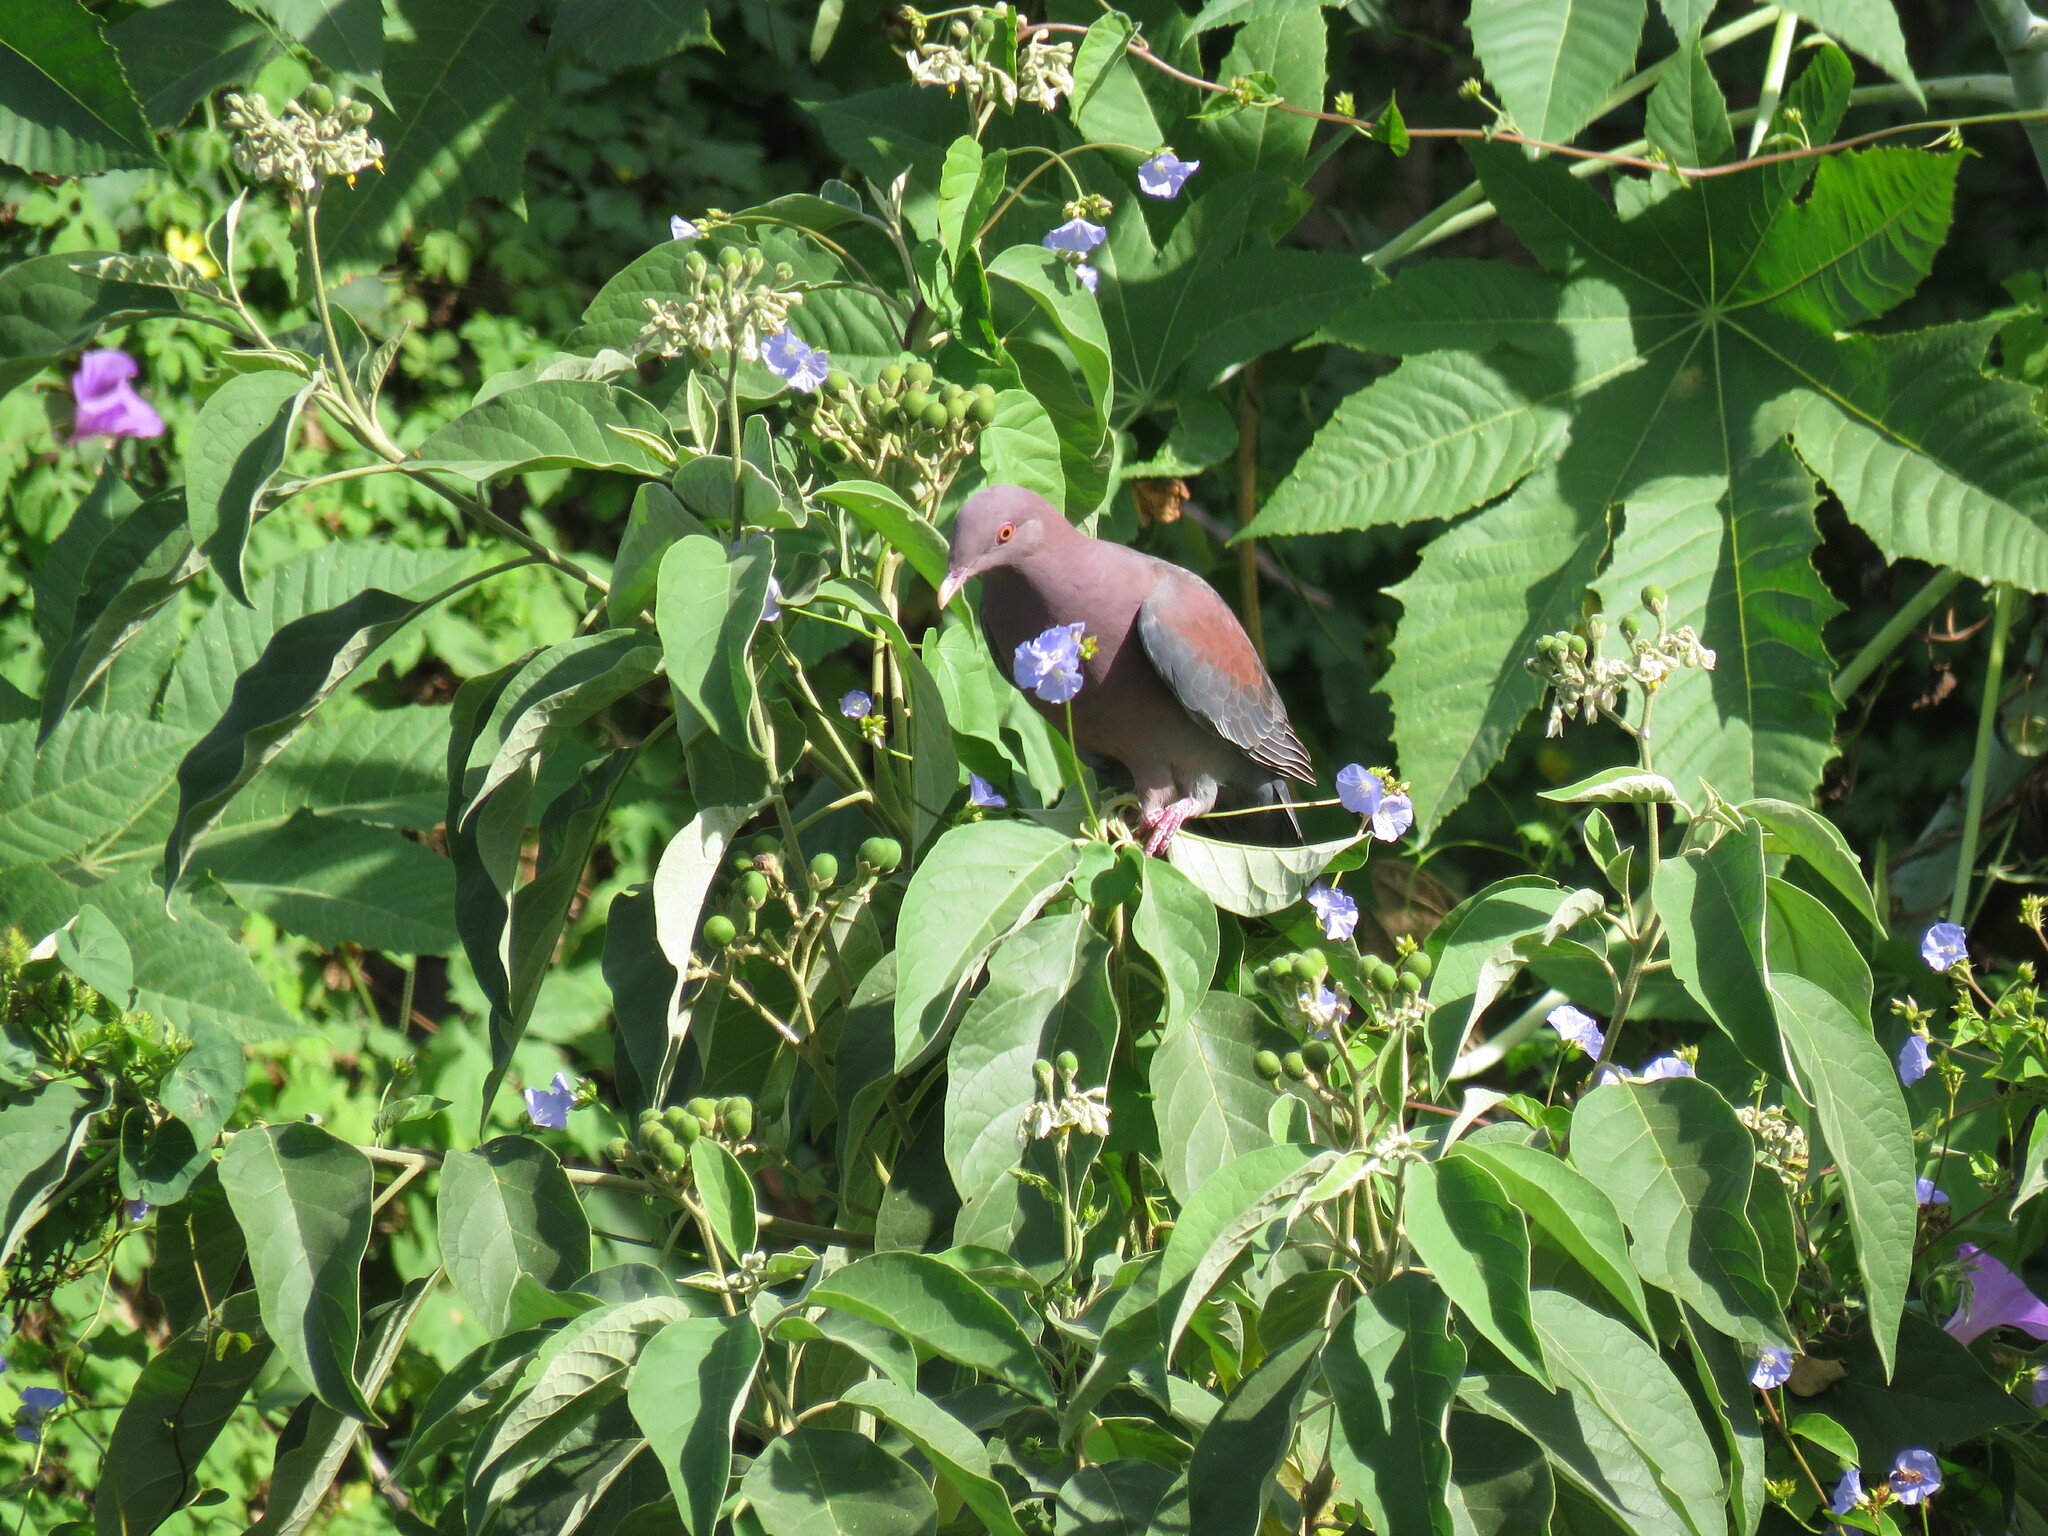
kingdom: Animalia
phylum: Chordata
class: Aves
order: Columbiformes
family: Columbidae
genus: Patagioenas
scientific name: Patagioenas flavirostris
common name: Red-billed pigeon
